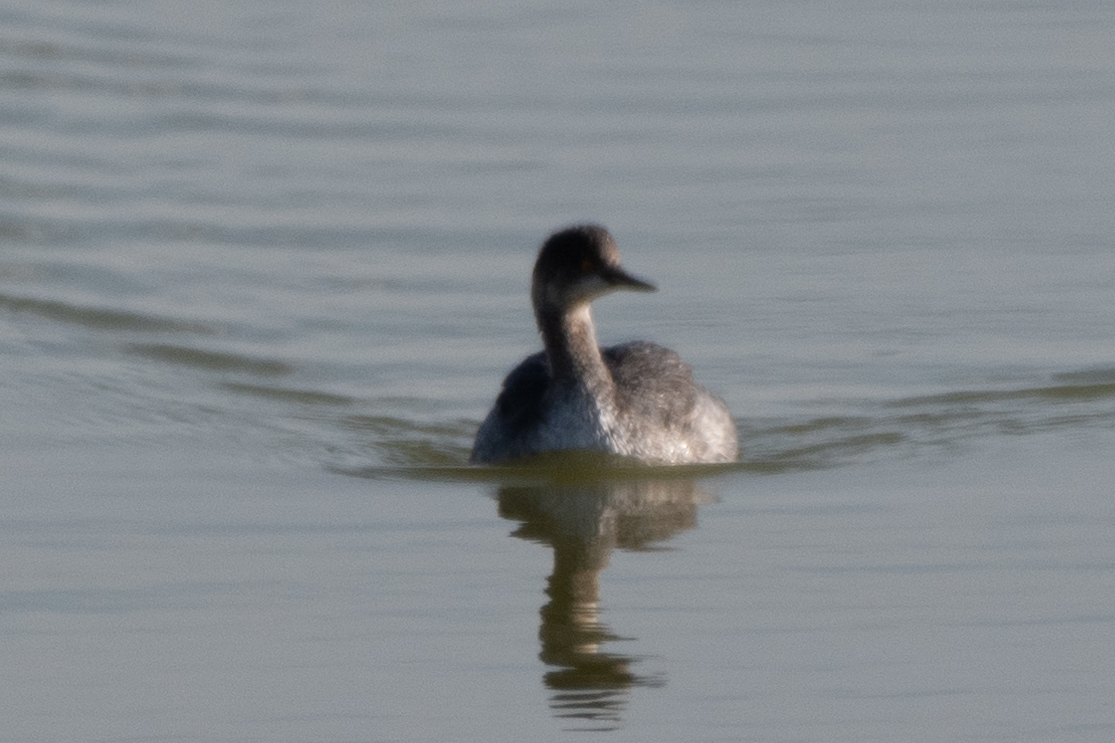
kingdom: Animalia
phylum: Chordata
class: Aves
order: Podicipediformes
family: Podicipedidae
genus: Podiceps
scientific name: Podiceps nigricollis
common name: Black-necked grebe
